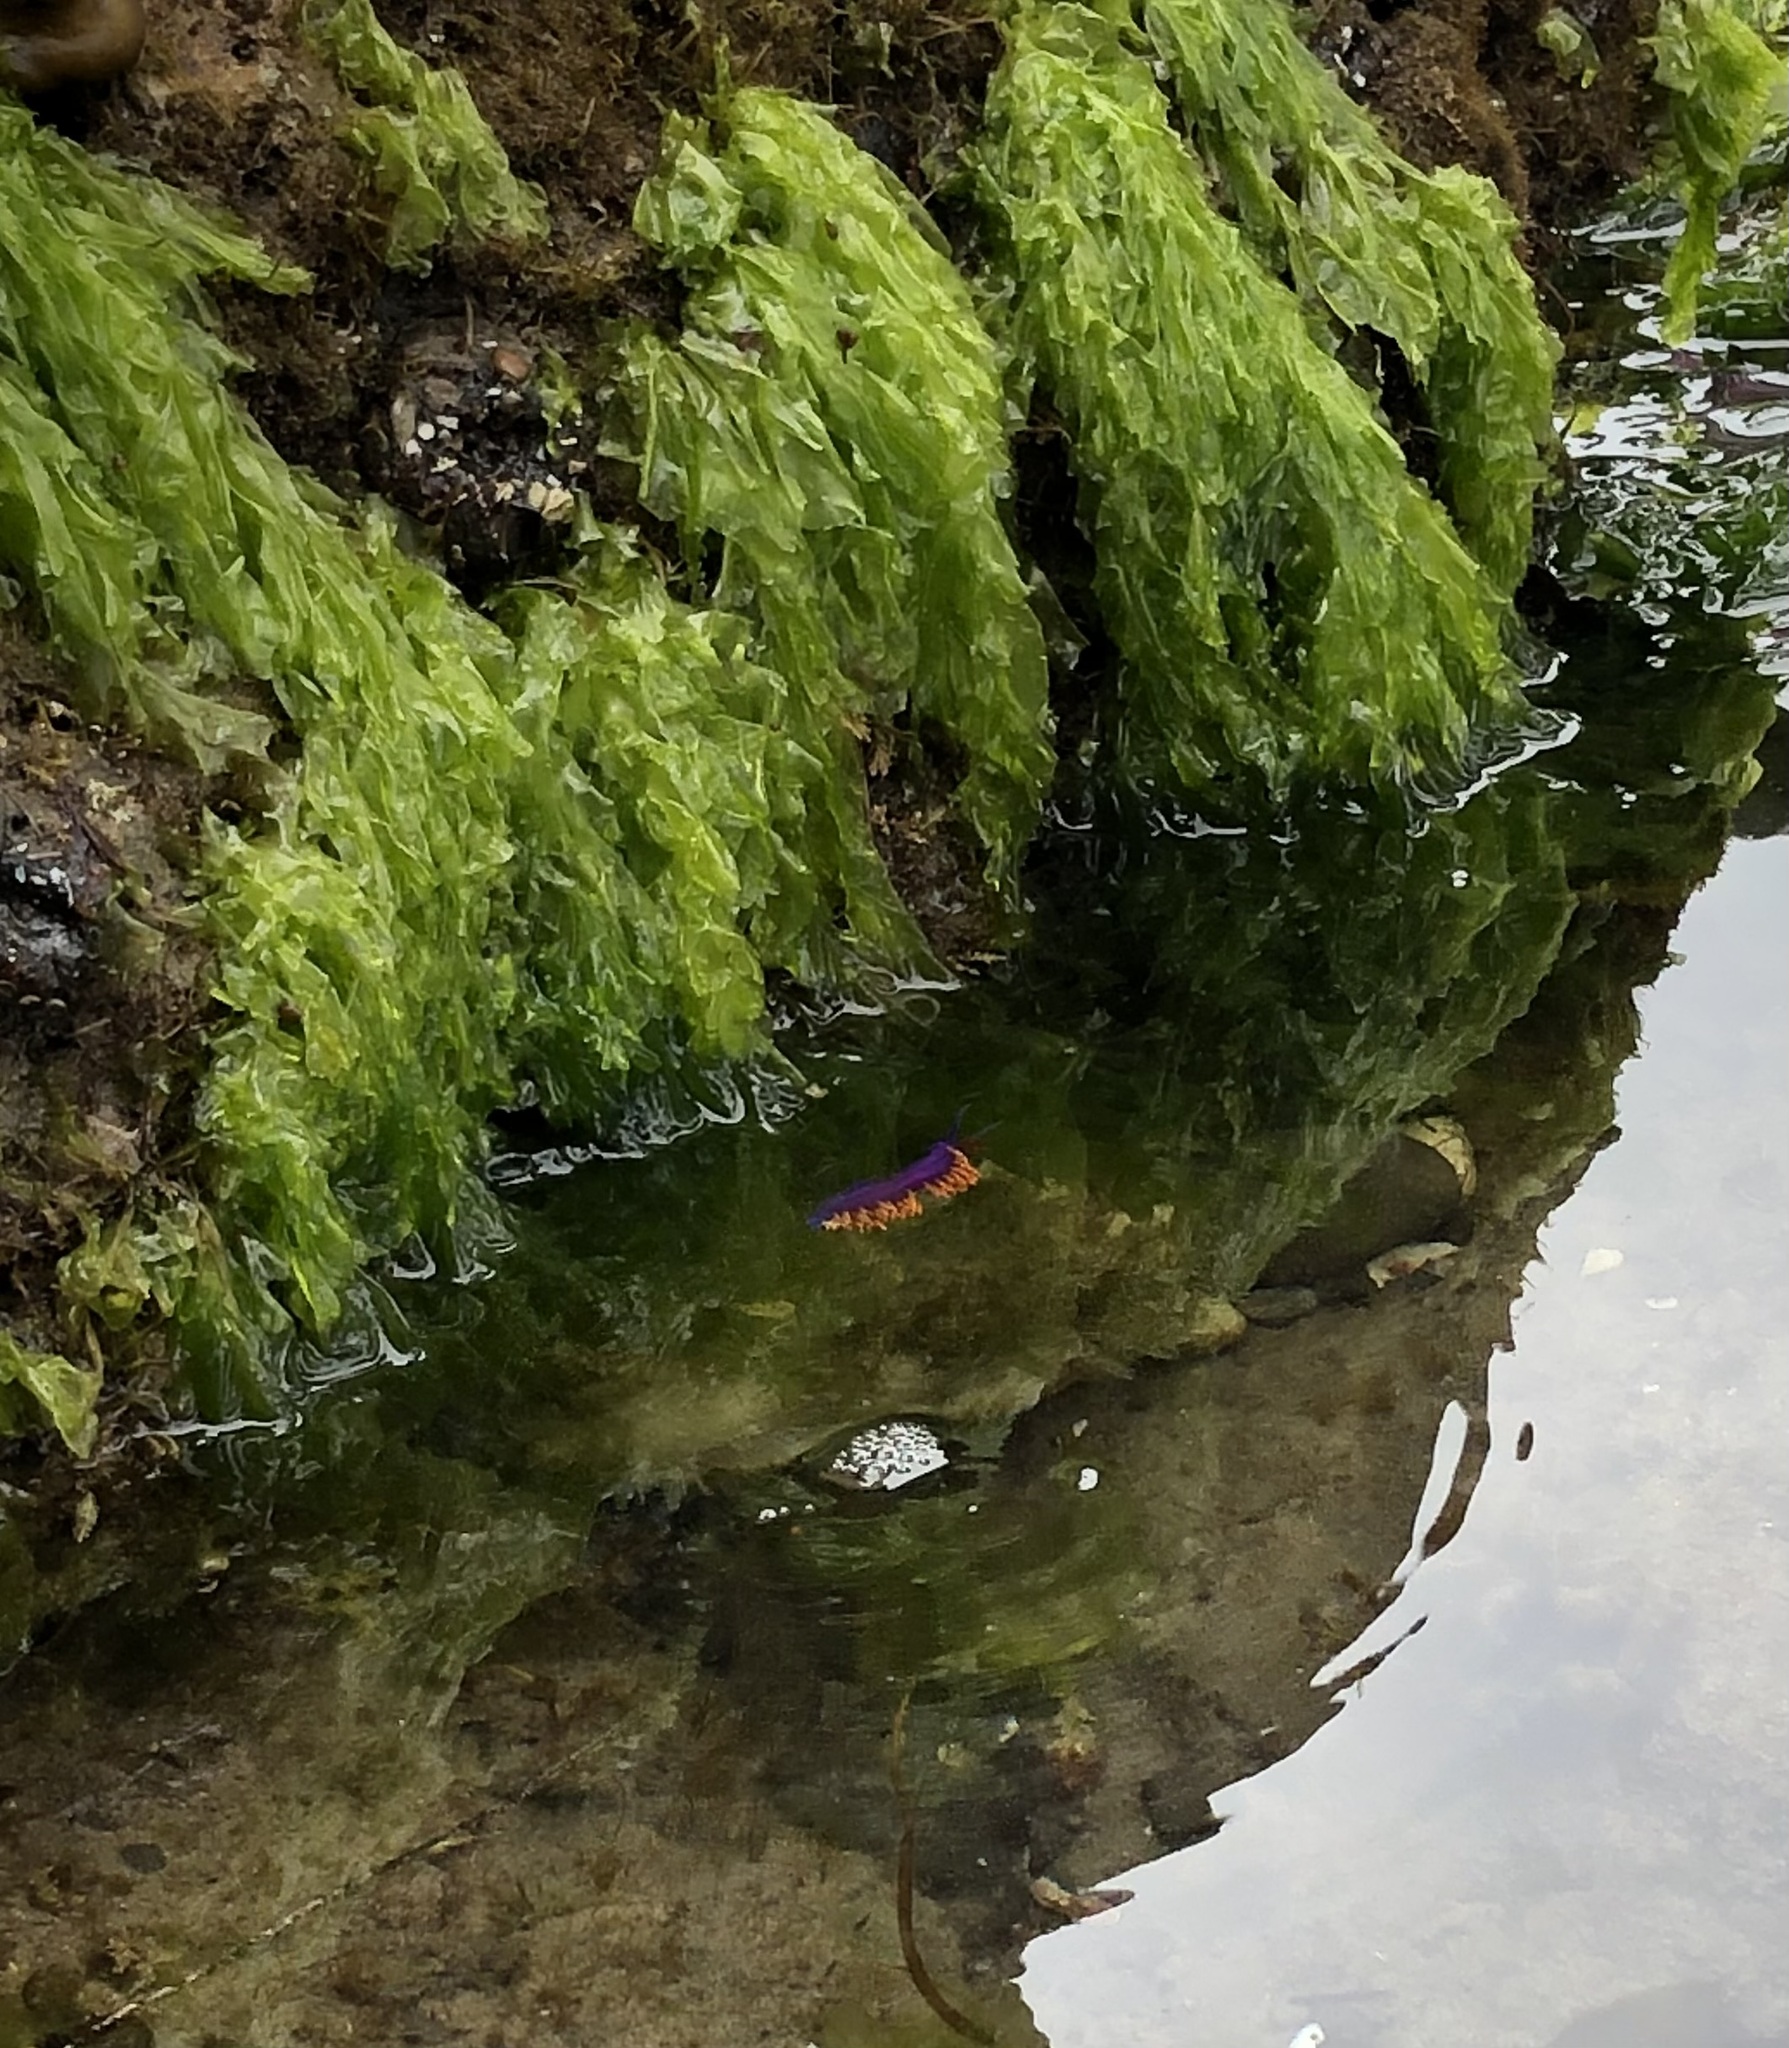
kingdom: Animalia
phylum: Mollusca
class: Gastropoda
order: Nudibranchia
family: Flabellinopsidae
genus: Flabellinopsis
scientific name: Flabellinopsis iodinea
